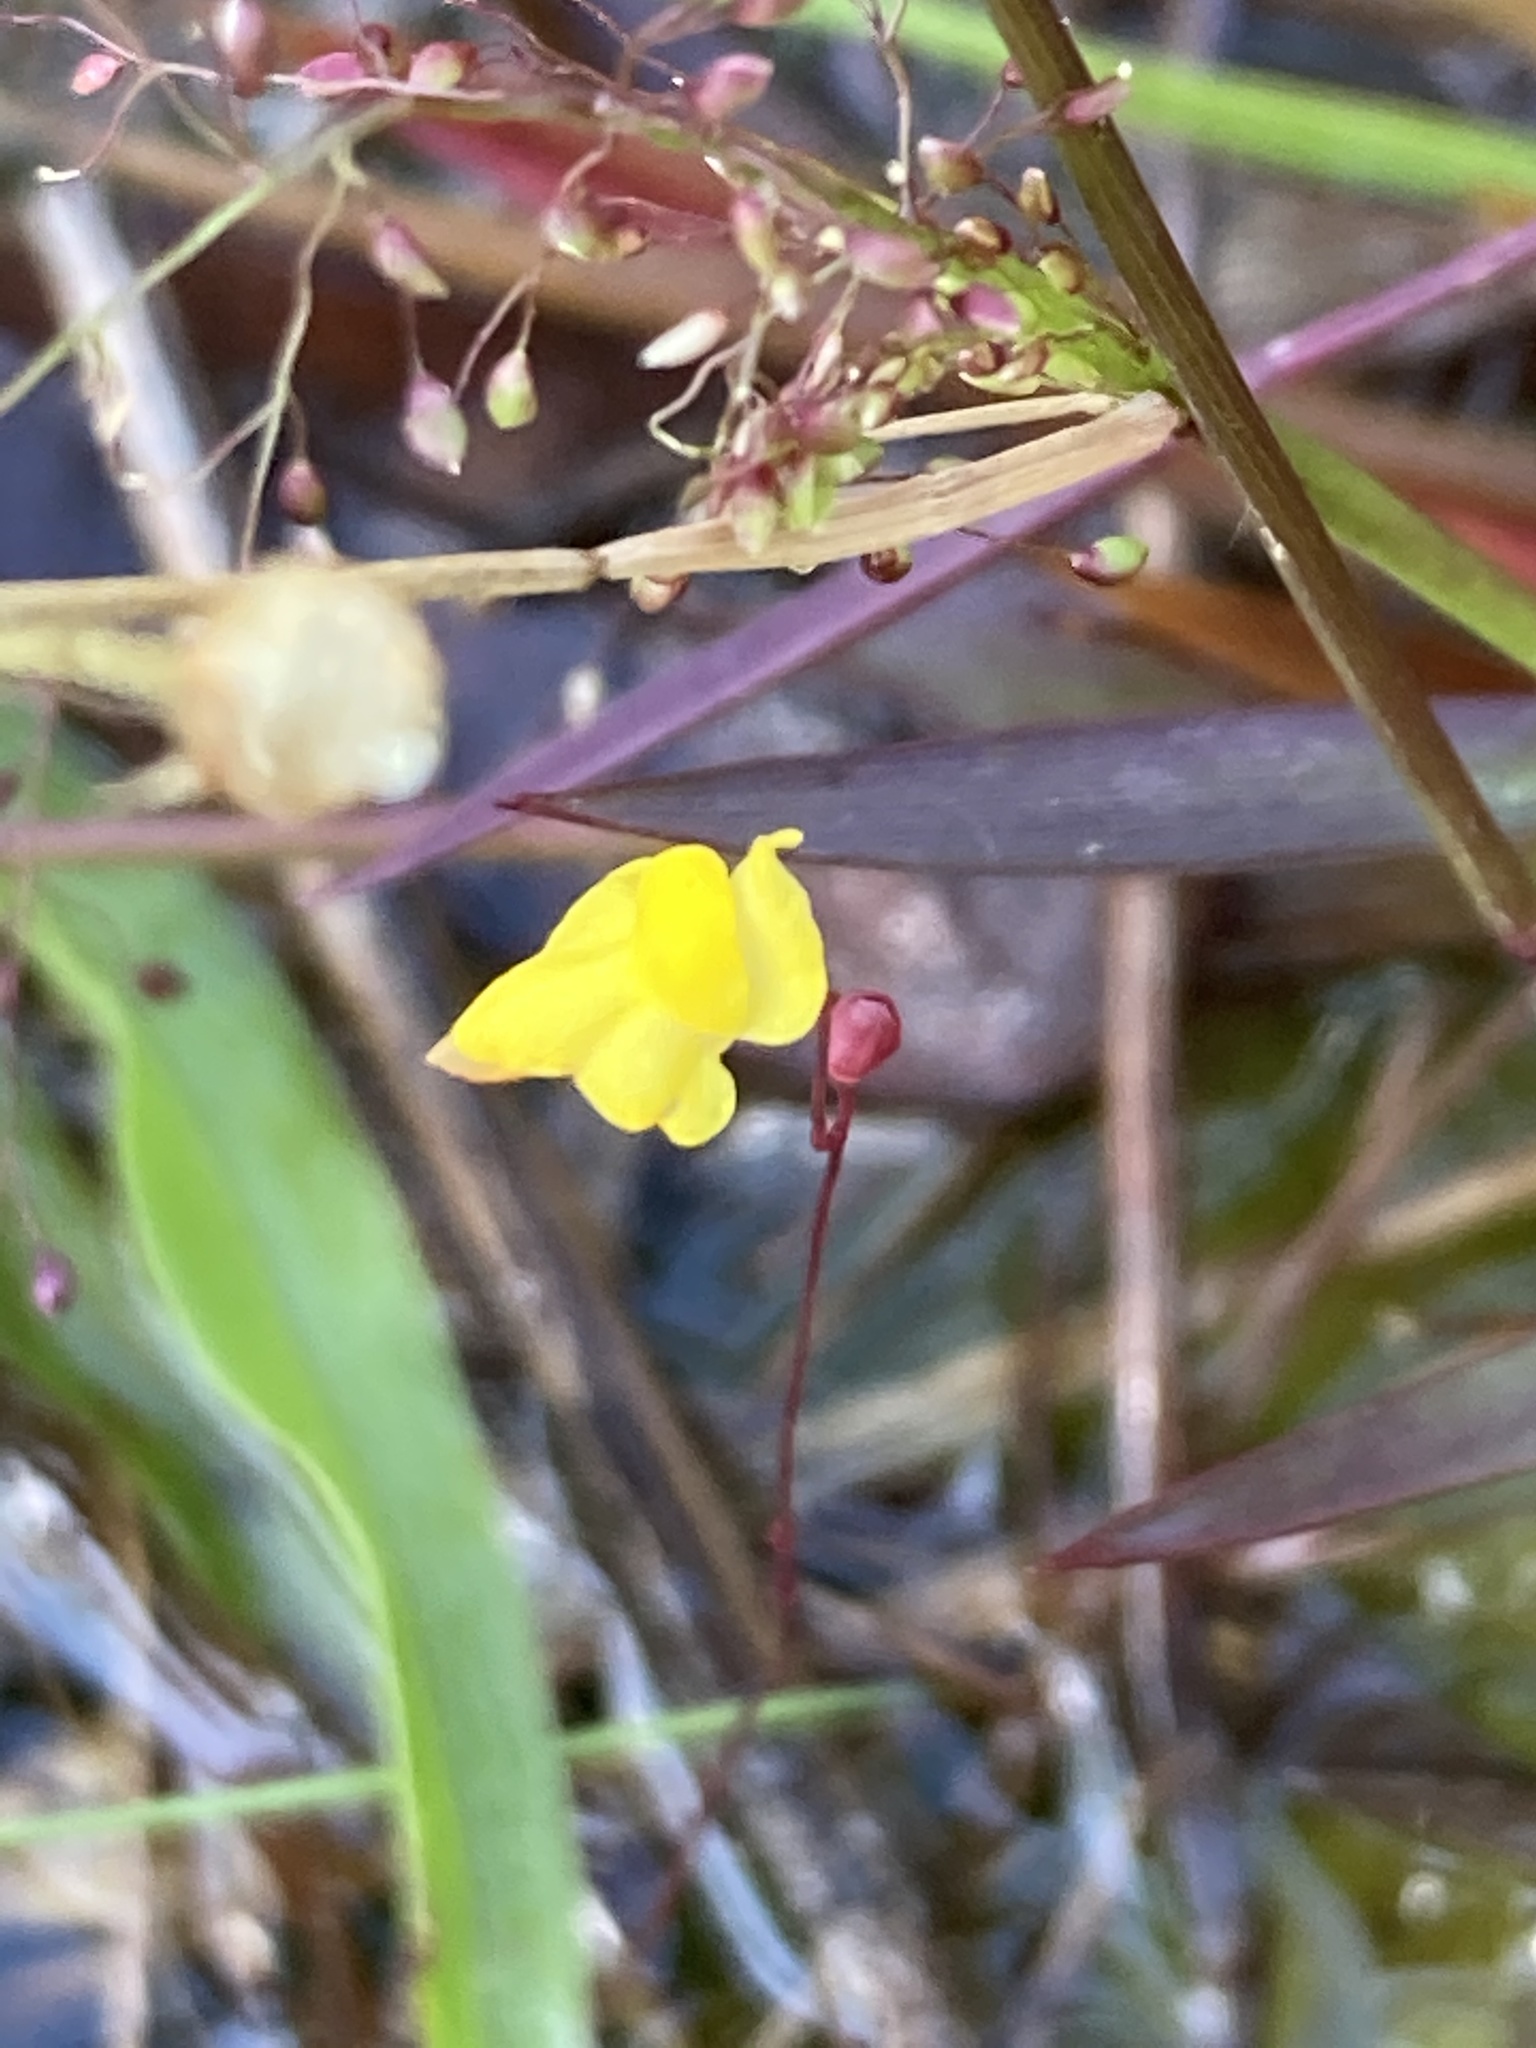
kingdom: Plantae
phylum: Tracheophyta
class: Magnoliopsida
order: Lamiales
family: Lentibulariaceae
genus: Utricularia
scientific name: Utricularia subulata
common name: Tiny bladderwort
